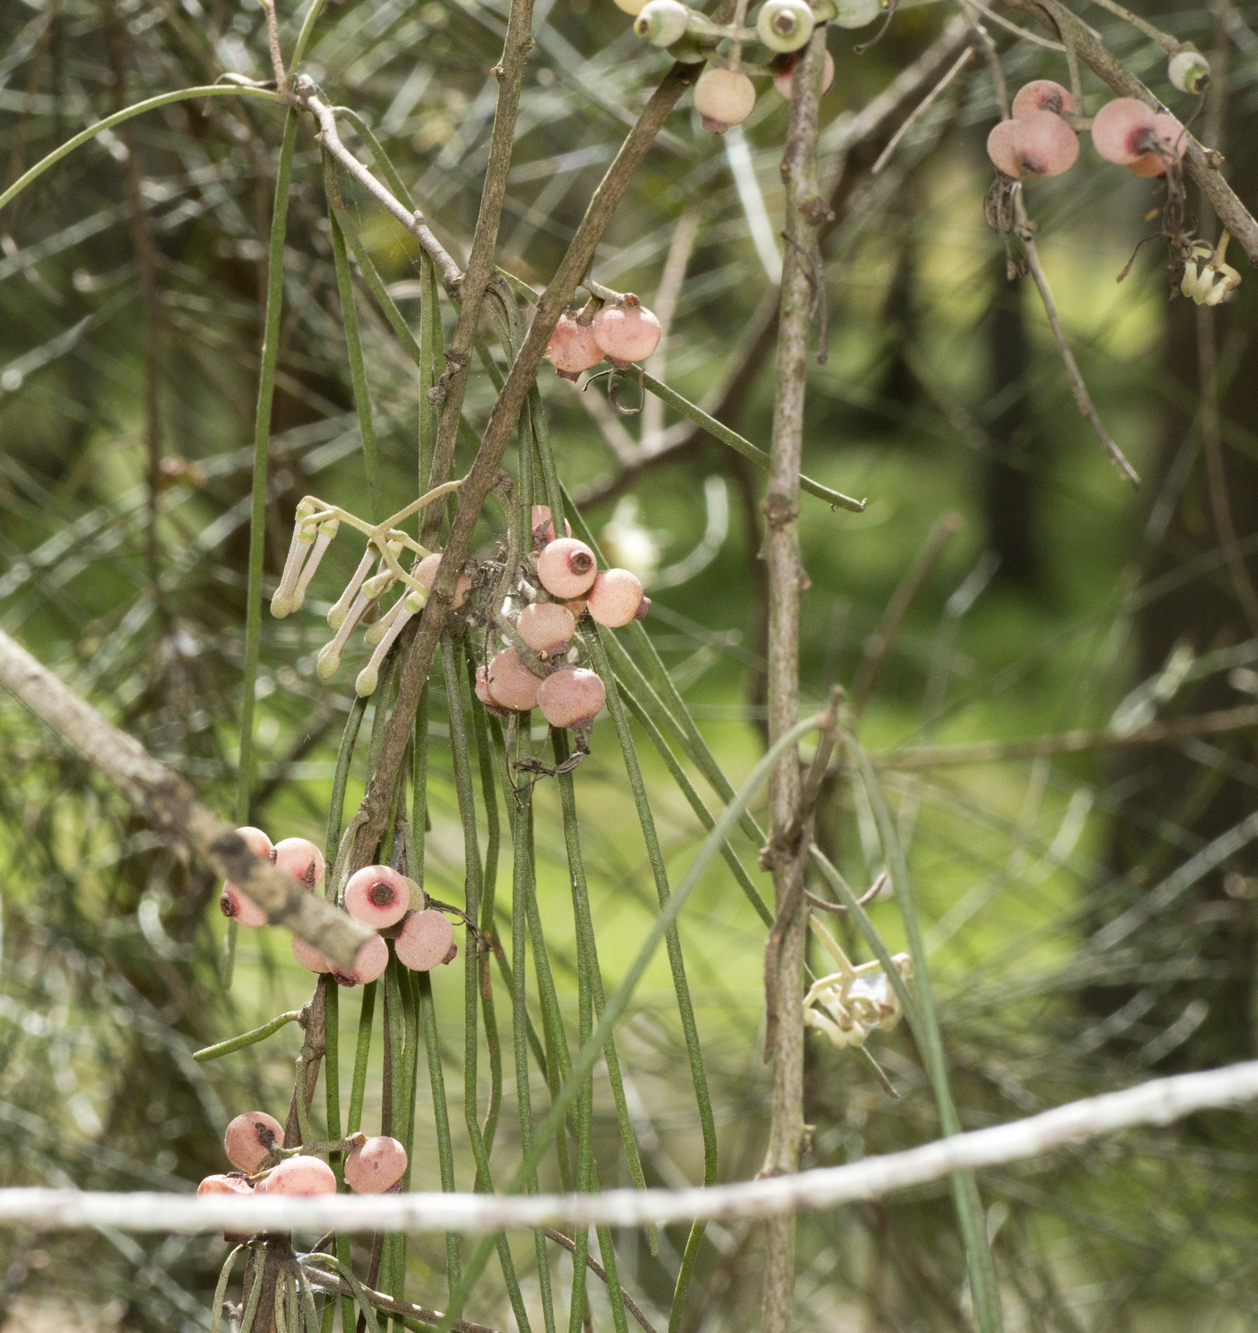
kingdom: Plantae
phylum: Tracheophyta
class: Magnoliopsida
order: Santalales
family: Loranthaceae
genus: Amyema
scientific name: Amyema cambagei
